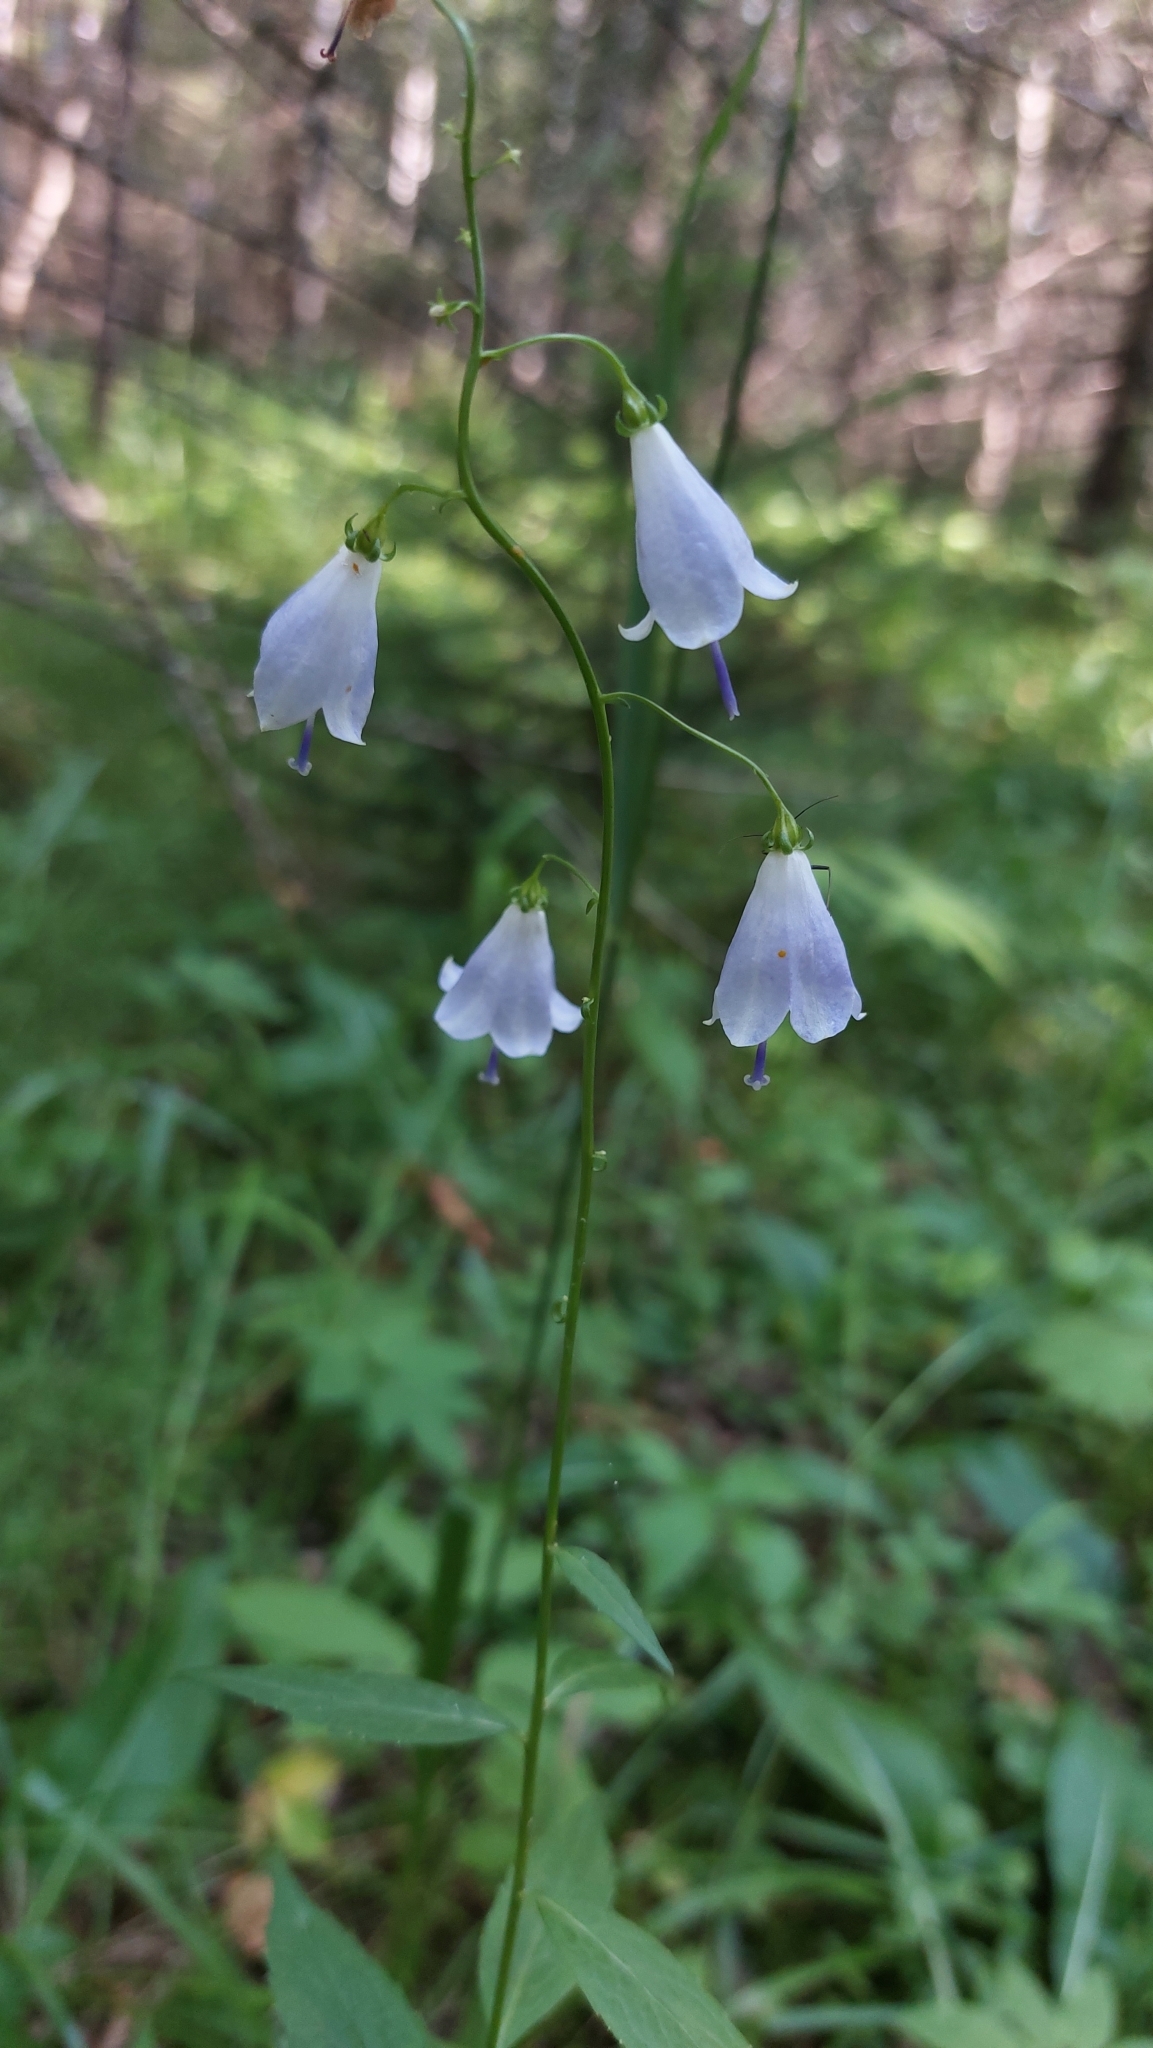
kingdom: Plantae
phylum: Tracheophyta
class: Magnoliopsida
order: Asterales
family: Campanulaceae
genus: Adenophora
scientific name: Adenophora liliifolia
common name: Lilyleaf ladybells
